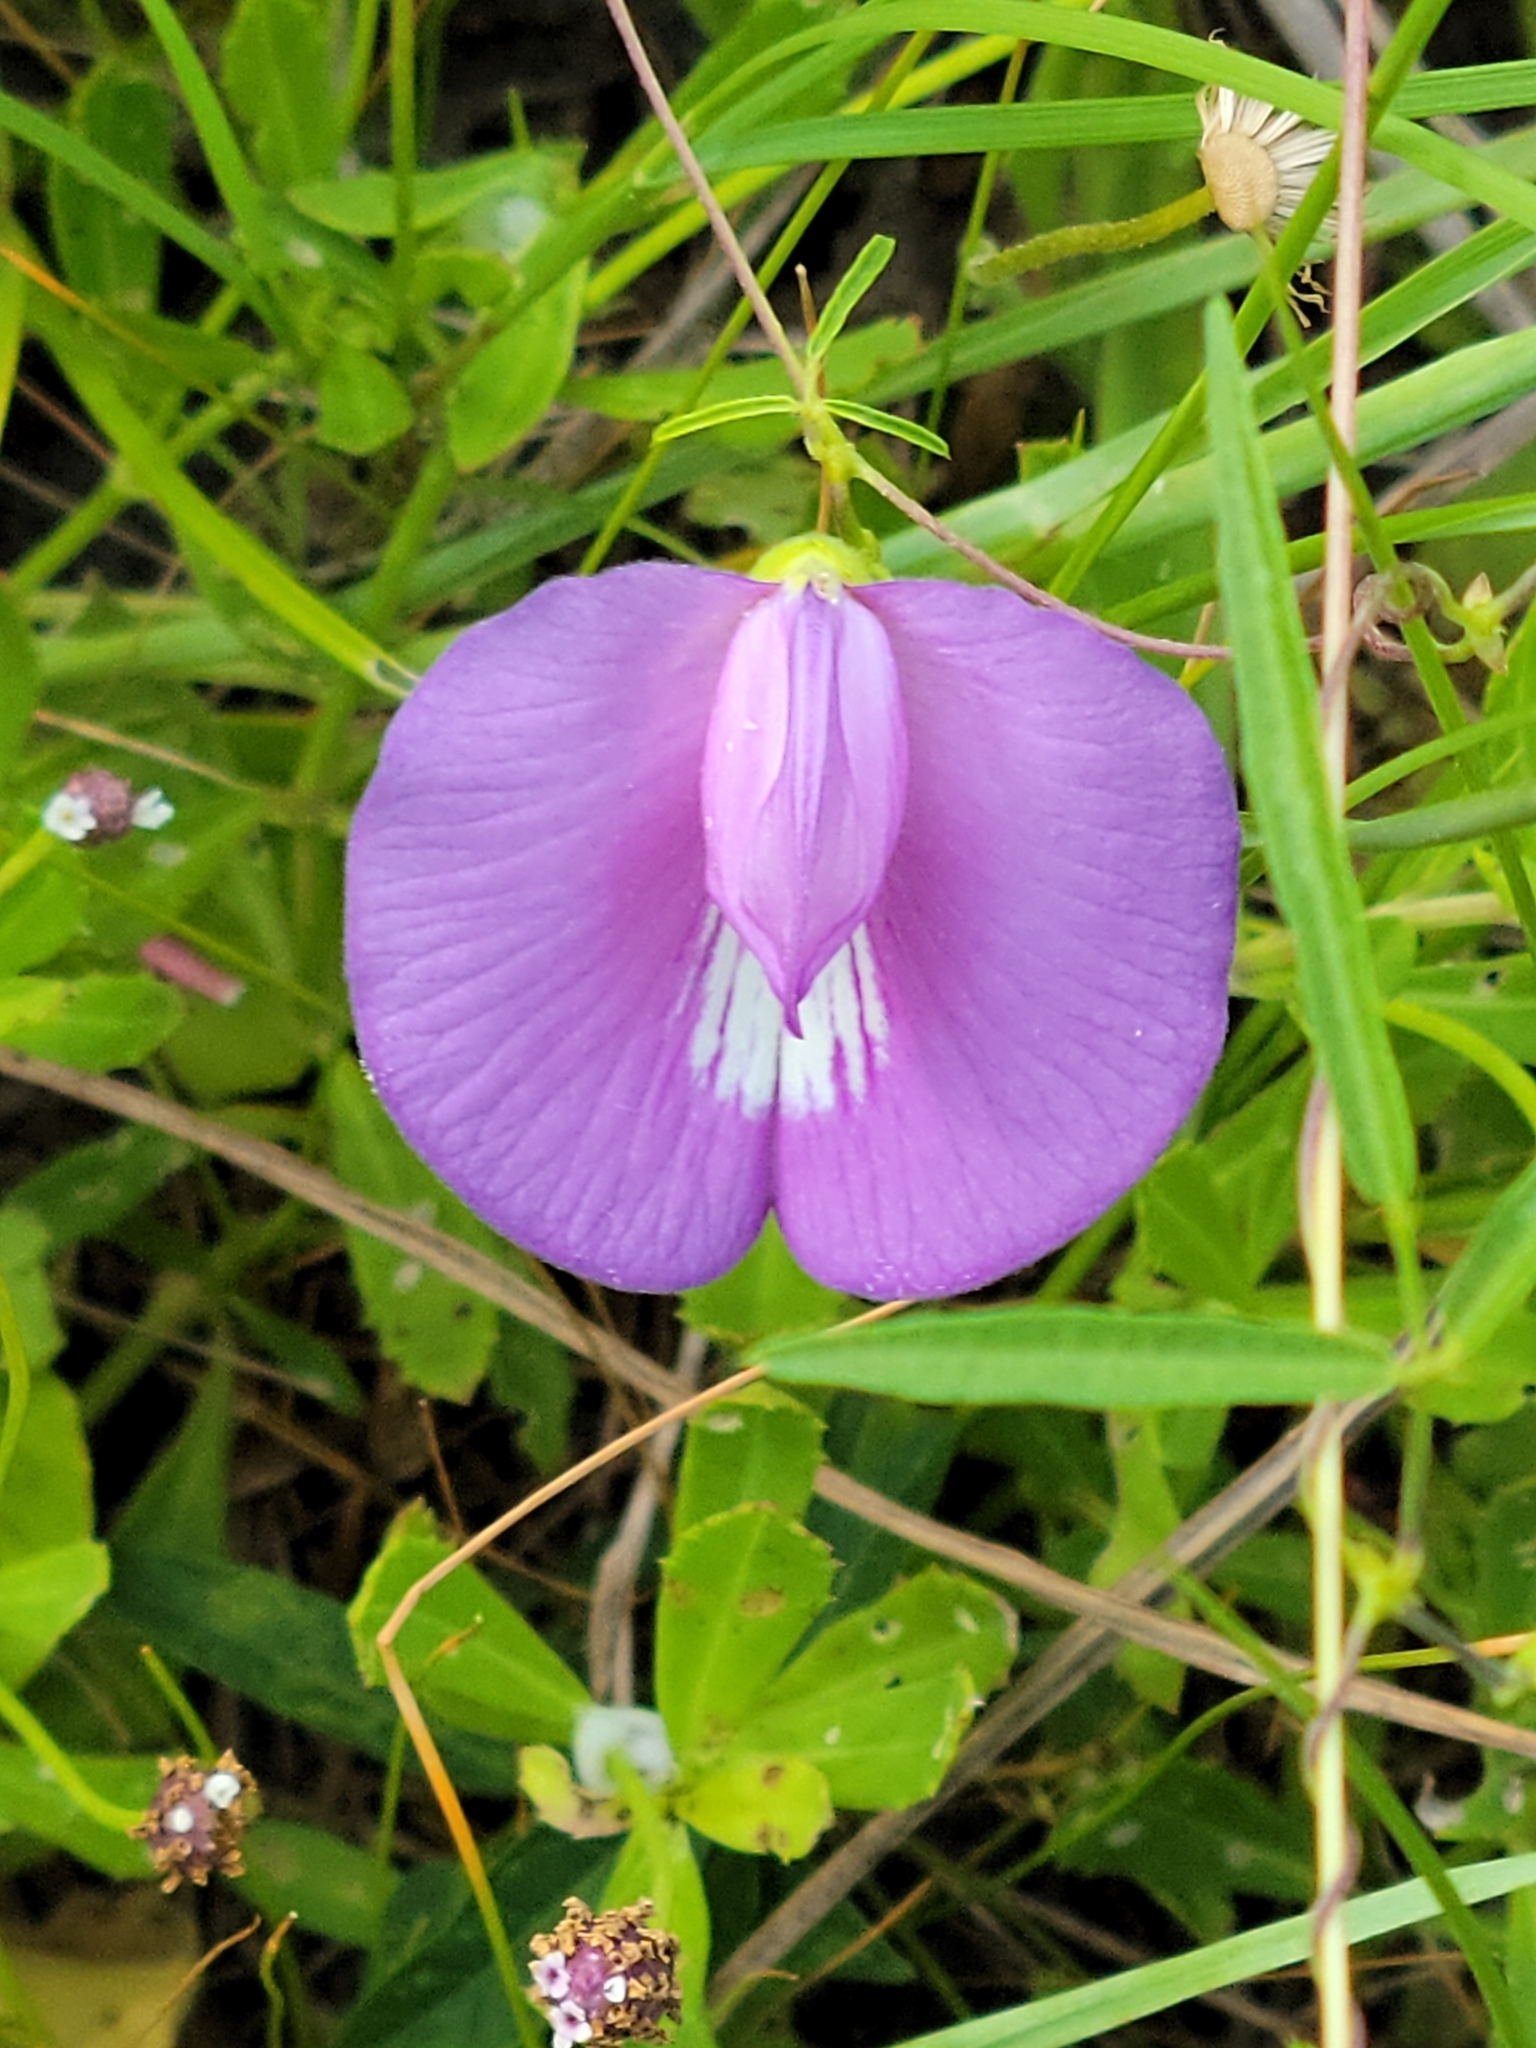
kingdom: Plantae
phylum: Tracheophyta
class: Magnoliopsida
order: Fabales
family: Fabaceae
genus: Centrosema
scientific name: Centrosema virginianum
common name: Butterfly-pea
